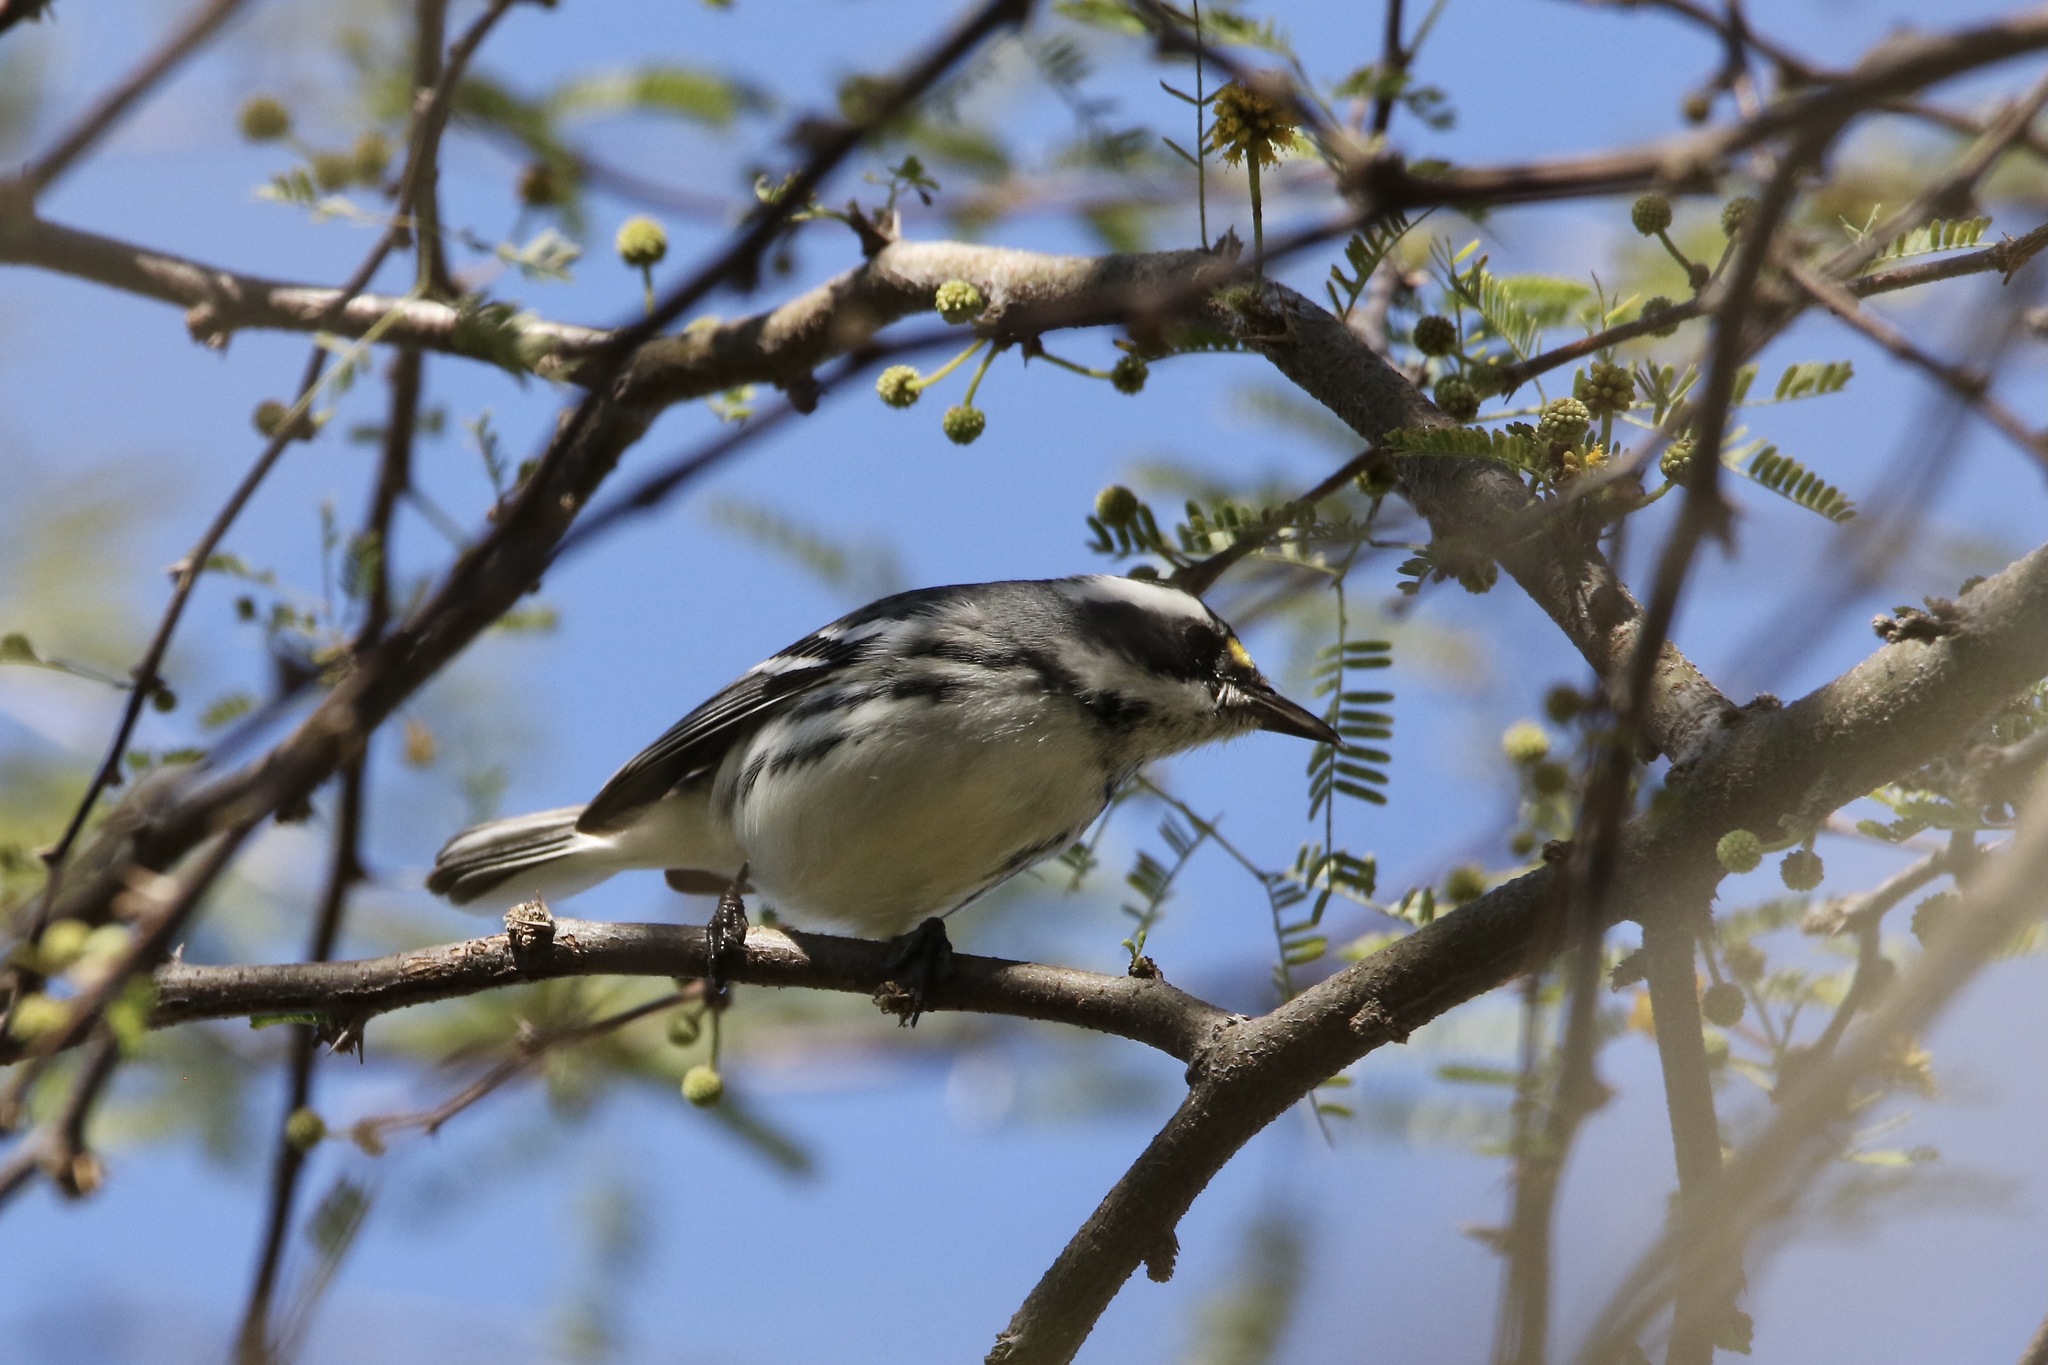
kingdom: Animalia
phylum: Chordata
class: Aves
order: Passeriformes
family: Parulidae
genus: Setophaga
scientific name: Setophaga nigrescens
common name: Black-throated gray warbler
